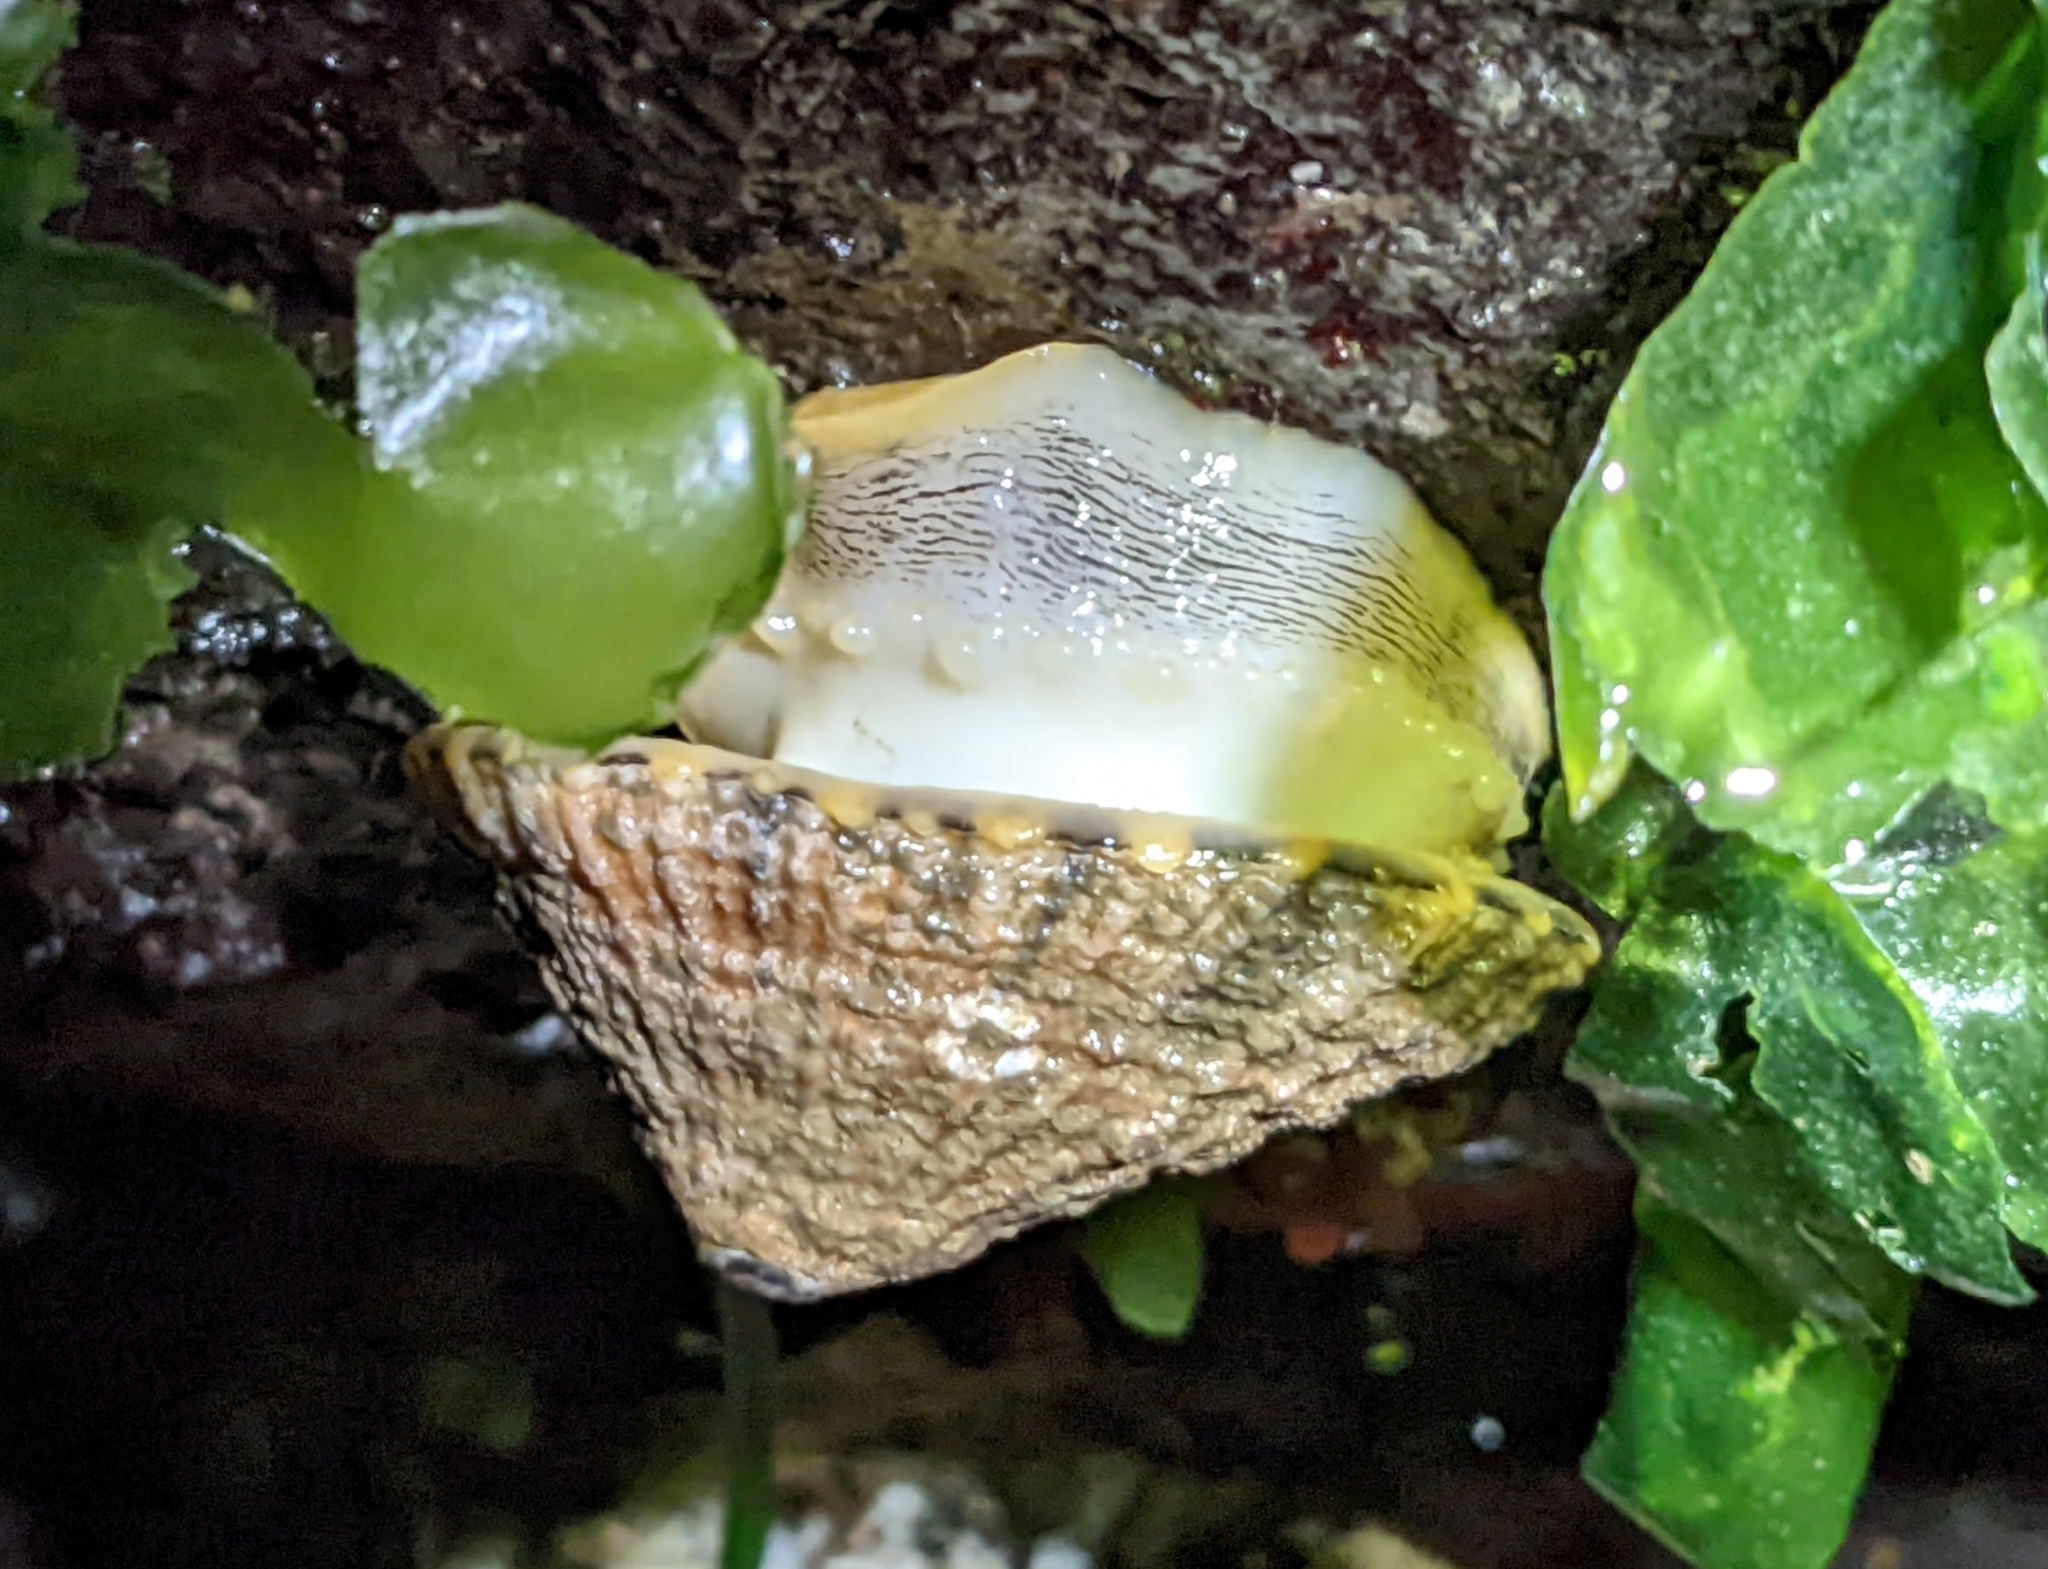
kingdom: Animalia
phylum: Mollusca
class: Gastropoda
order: Lepetellida
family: Fissurellidae
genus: Diodora
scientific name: Diodora aspera
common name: Rough keyhole limpet
